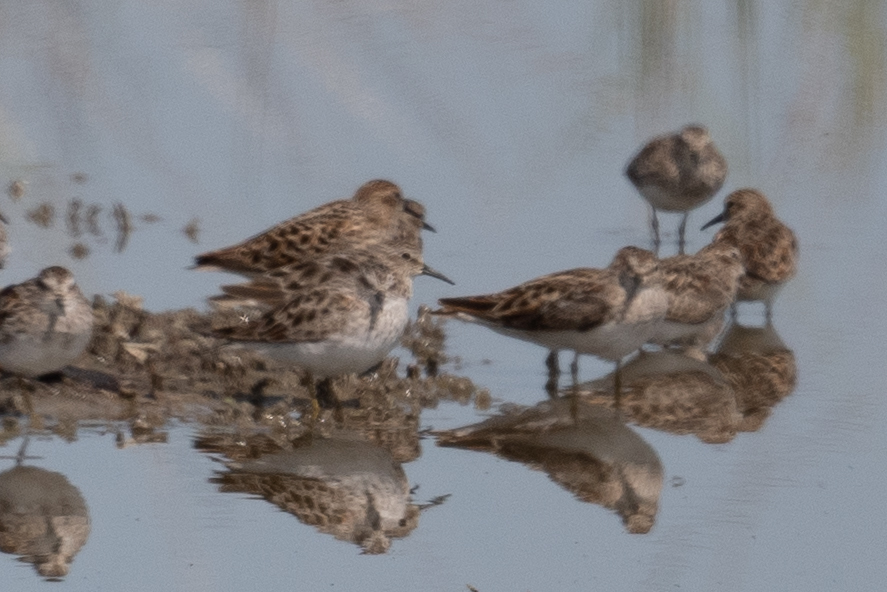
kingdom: Animalia
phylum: Chordata
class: Aves
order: Charadriiformes
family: Scolopacidae
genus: Calidris
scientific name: Calidris minutilla
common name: Least sandpiper
